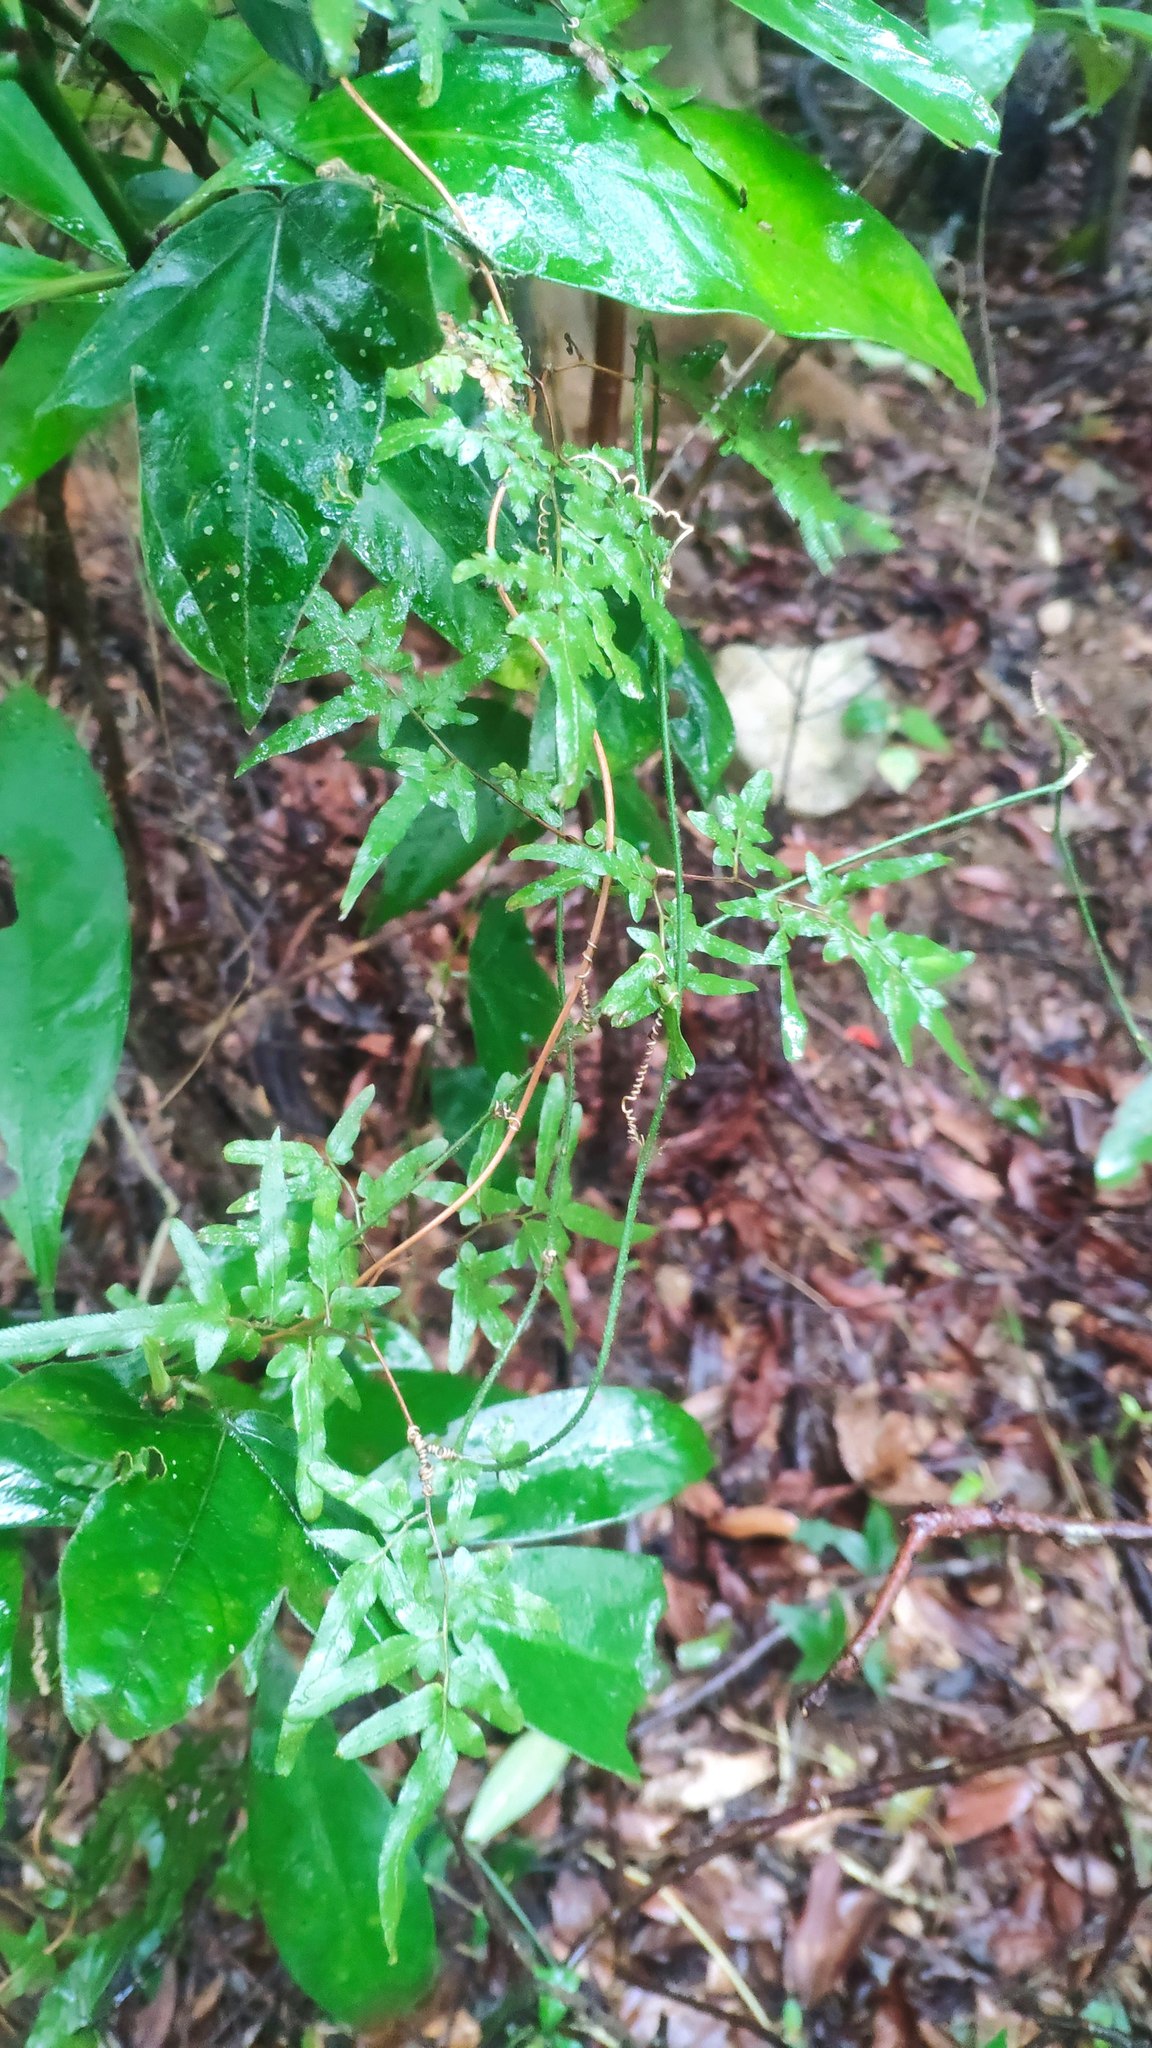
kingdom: Plantae
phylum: Tracheophyta
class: Polypodiopsida
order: Schizaeales
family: Lygodiaceae
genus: Lygodium
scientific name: Lygodium japonicum
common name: Japanese climbing fern
